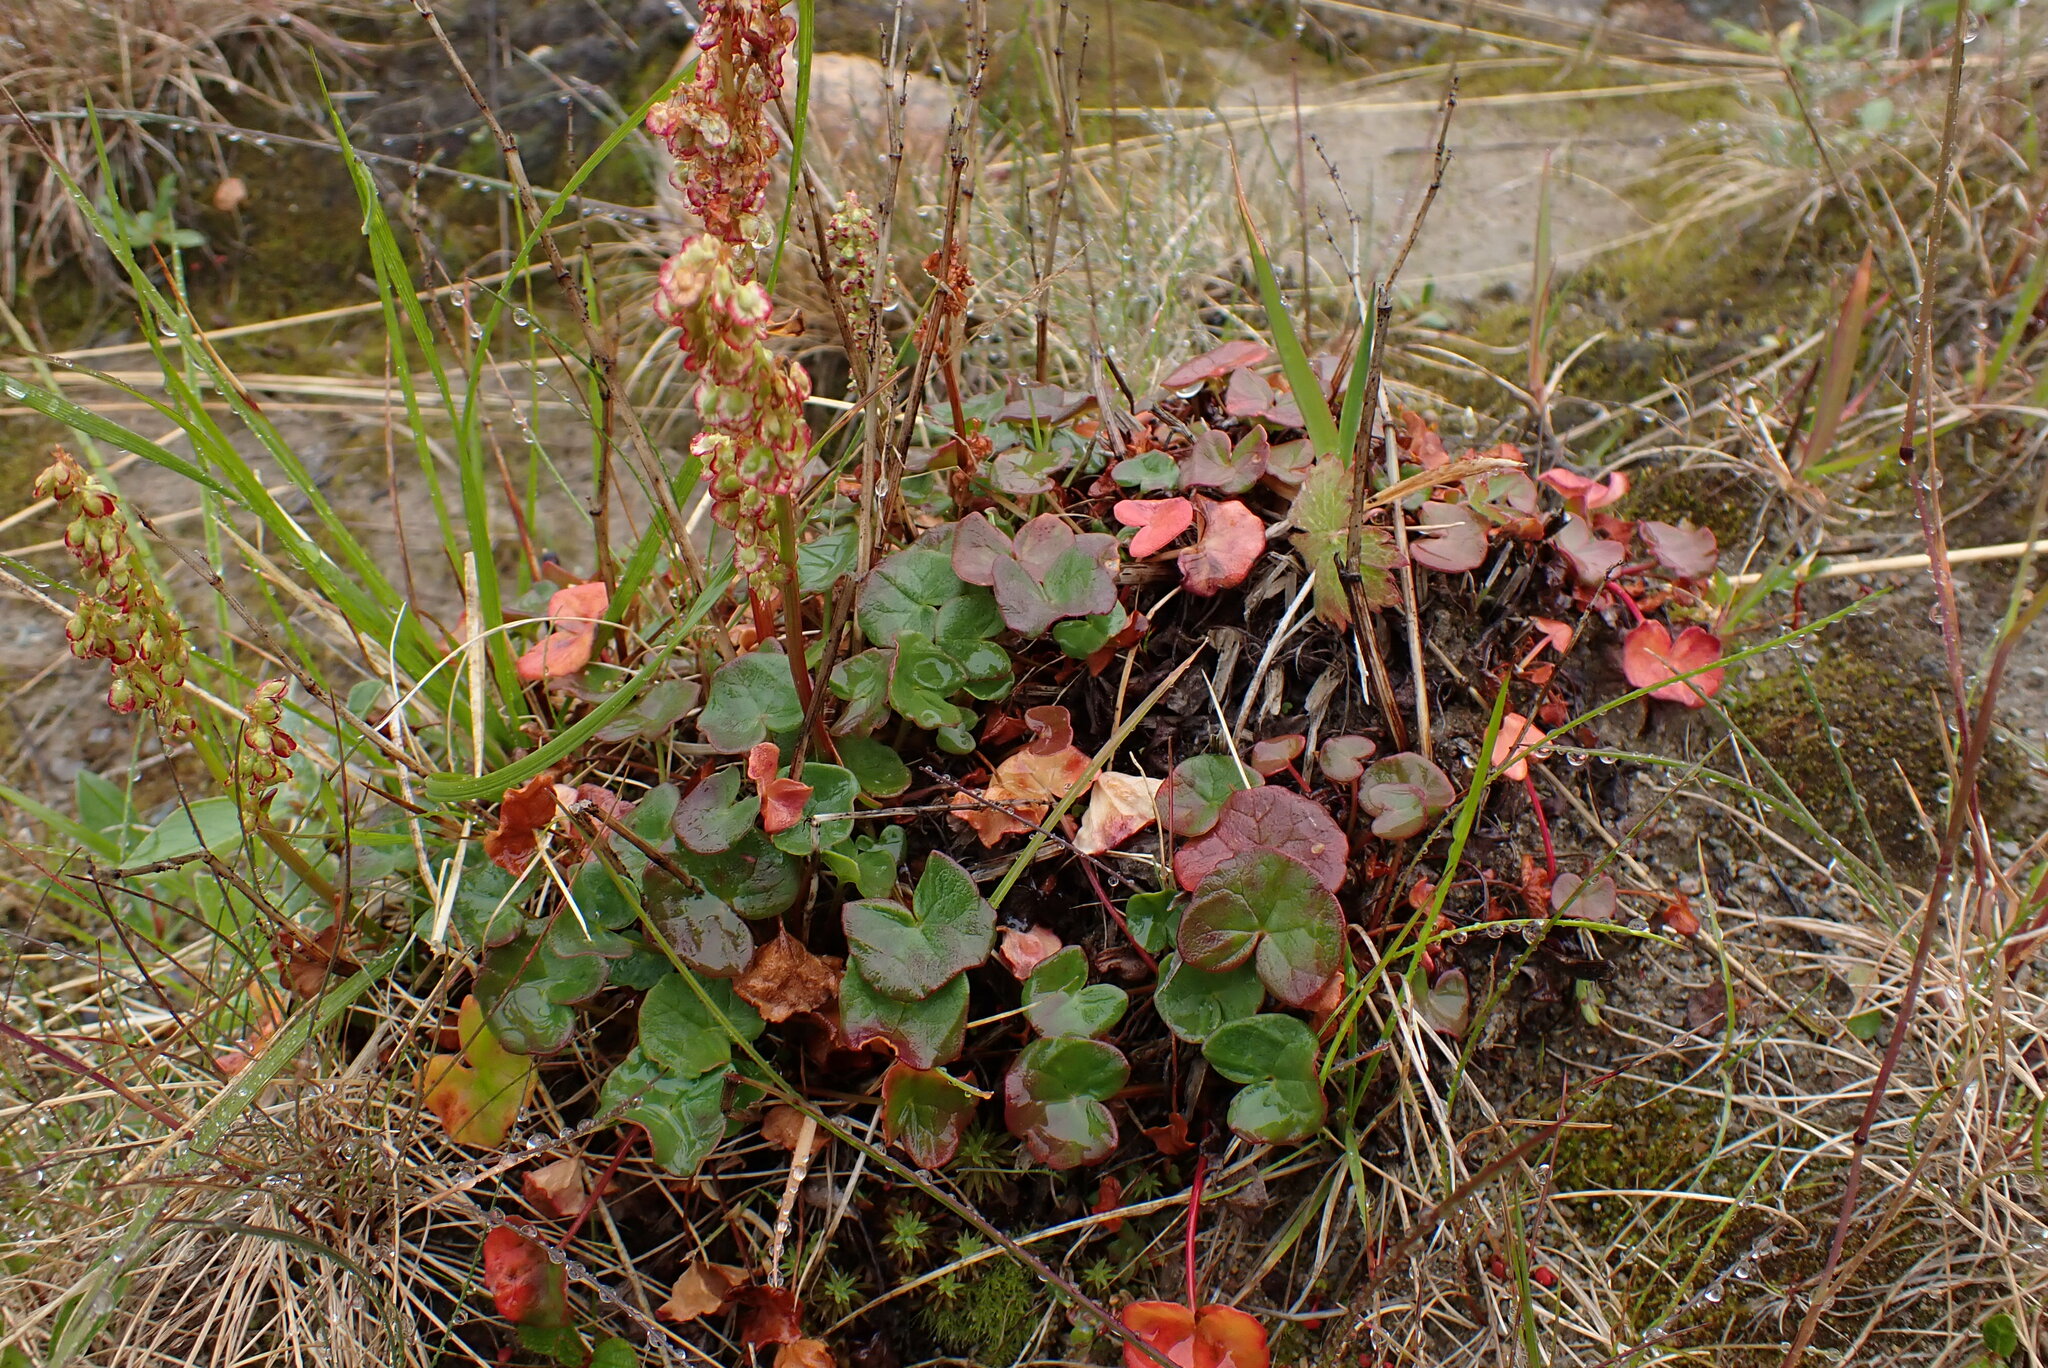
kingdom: Plantae
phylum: Tracheophyta
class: Magnoliopsida
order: Caryophyllales
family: Polygonaceae
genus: Oxyria
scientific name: Oxyria digyna
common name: Alpine mountain-sorrel
